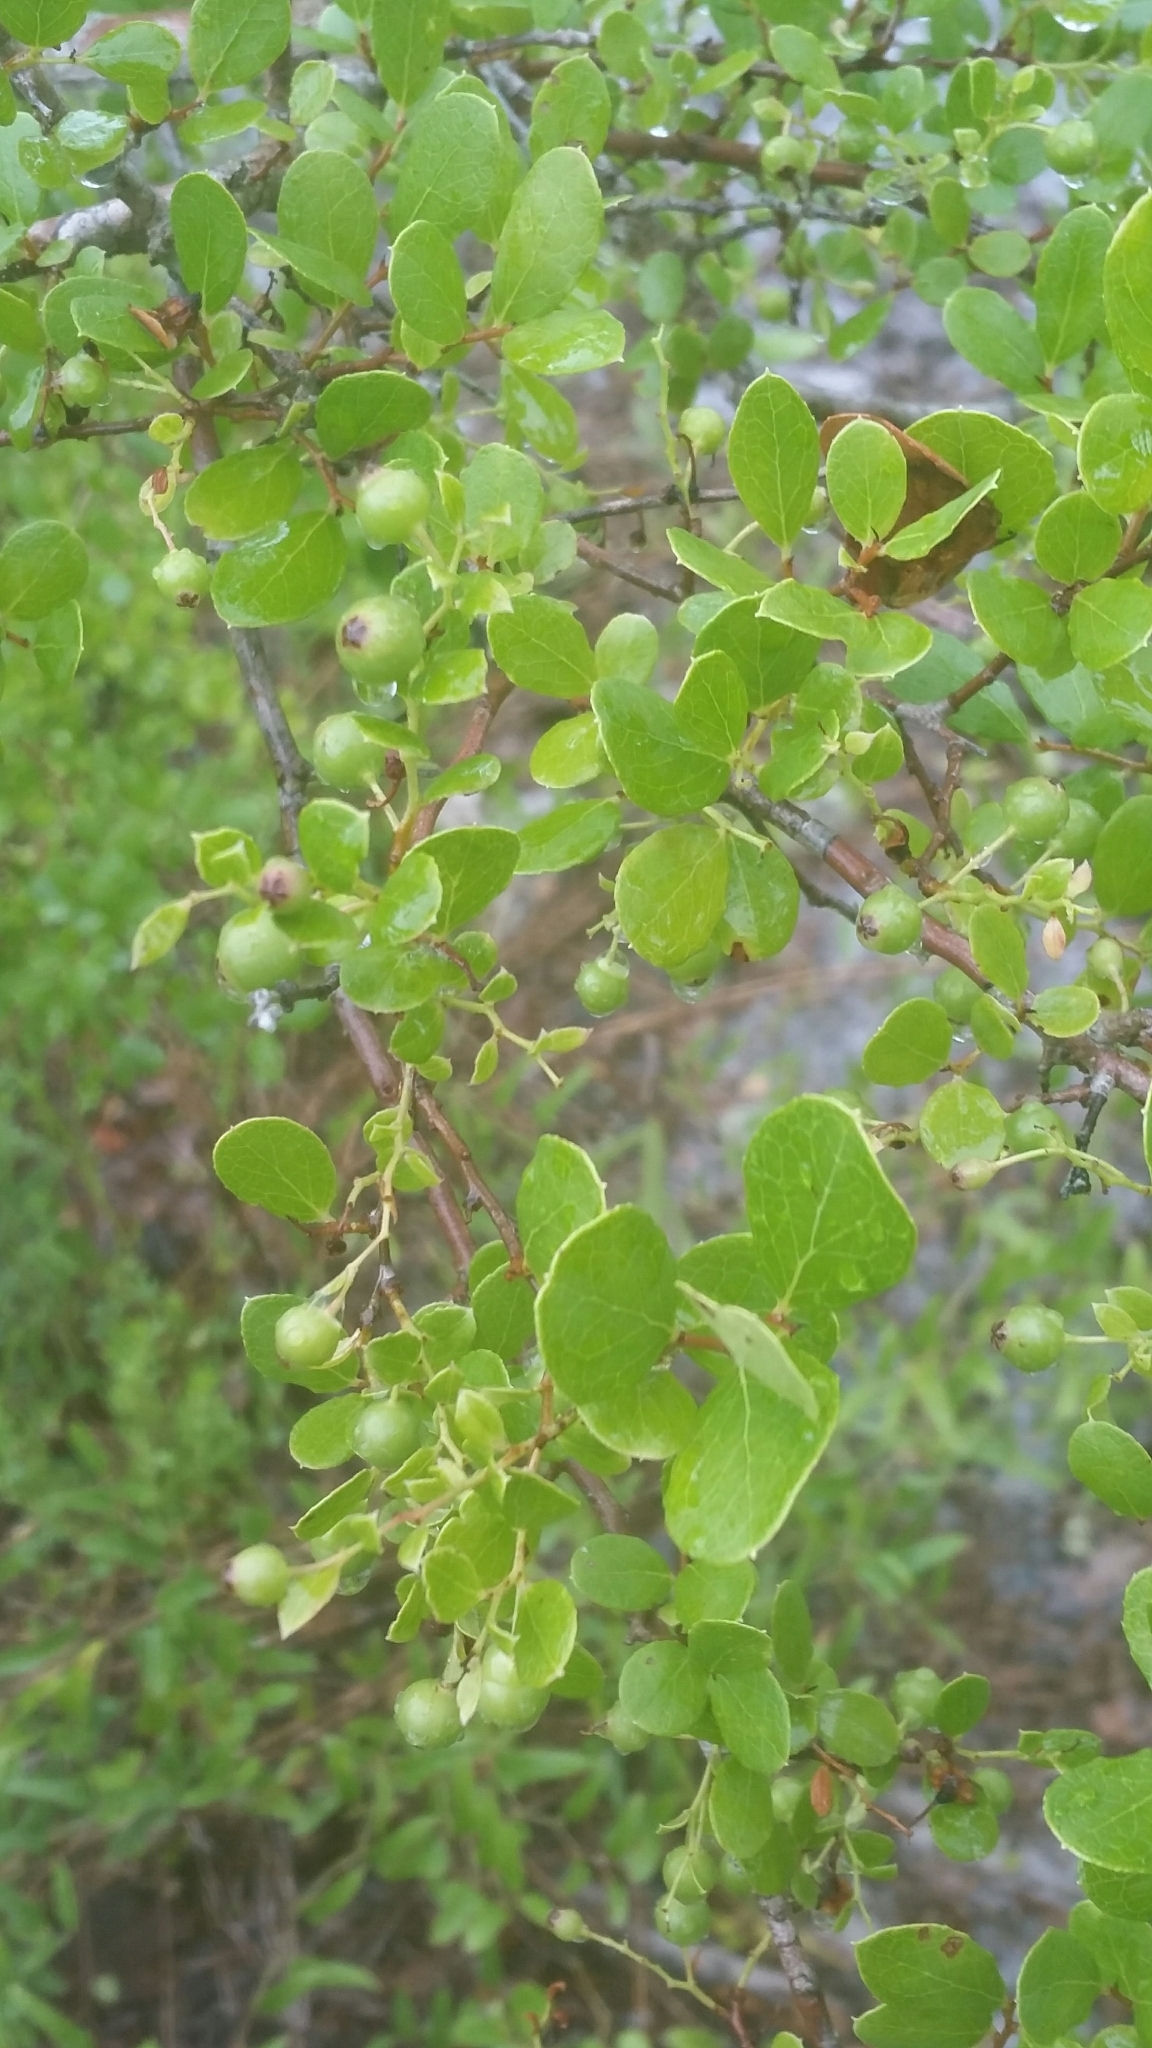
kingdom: Plantae
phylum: Tracheophyta
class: Magnoliopsida
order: Ericales
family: Ericaceae
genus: Vaccinium
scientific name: Vaccinium arboreum
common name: Farkleberry
